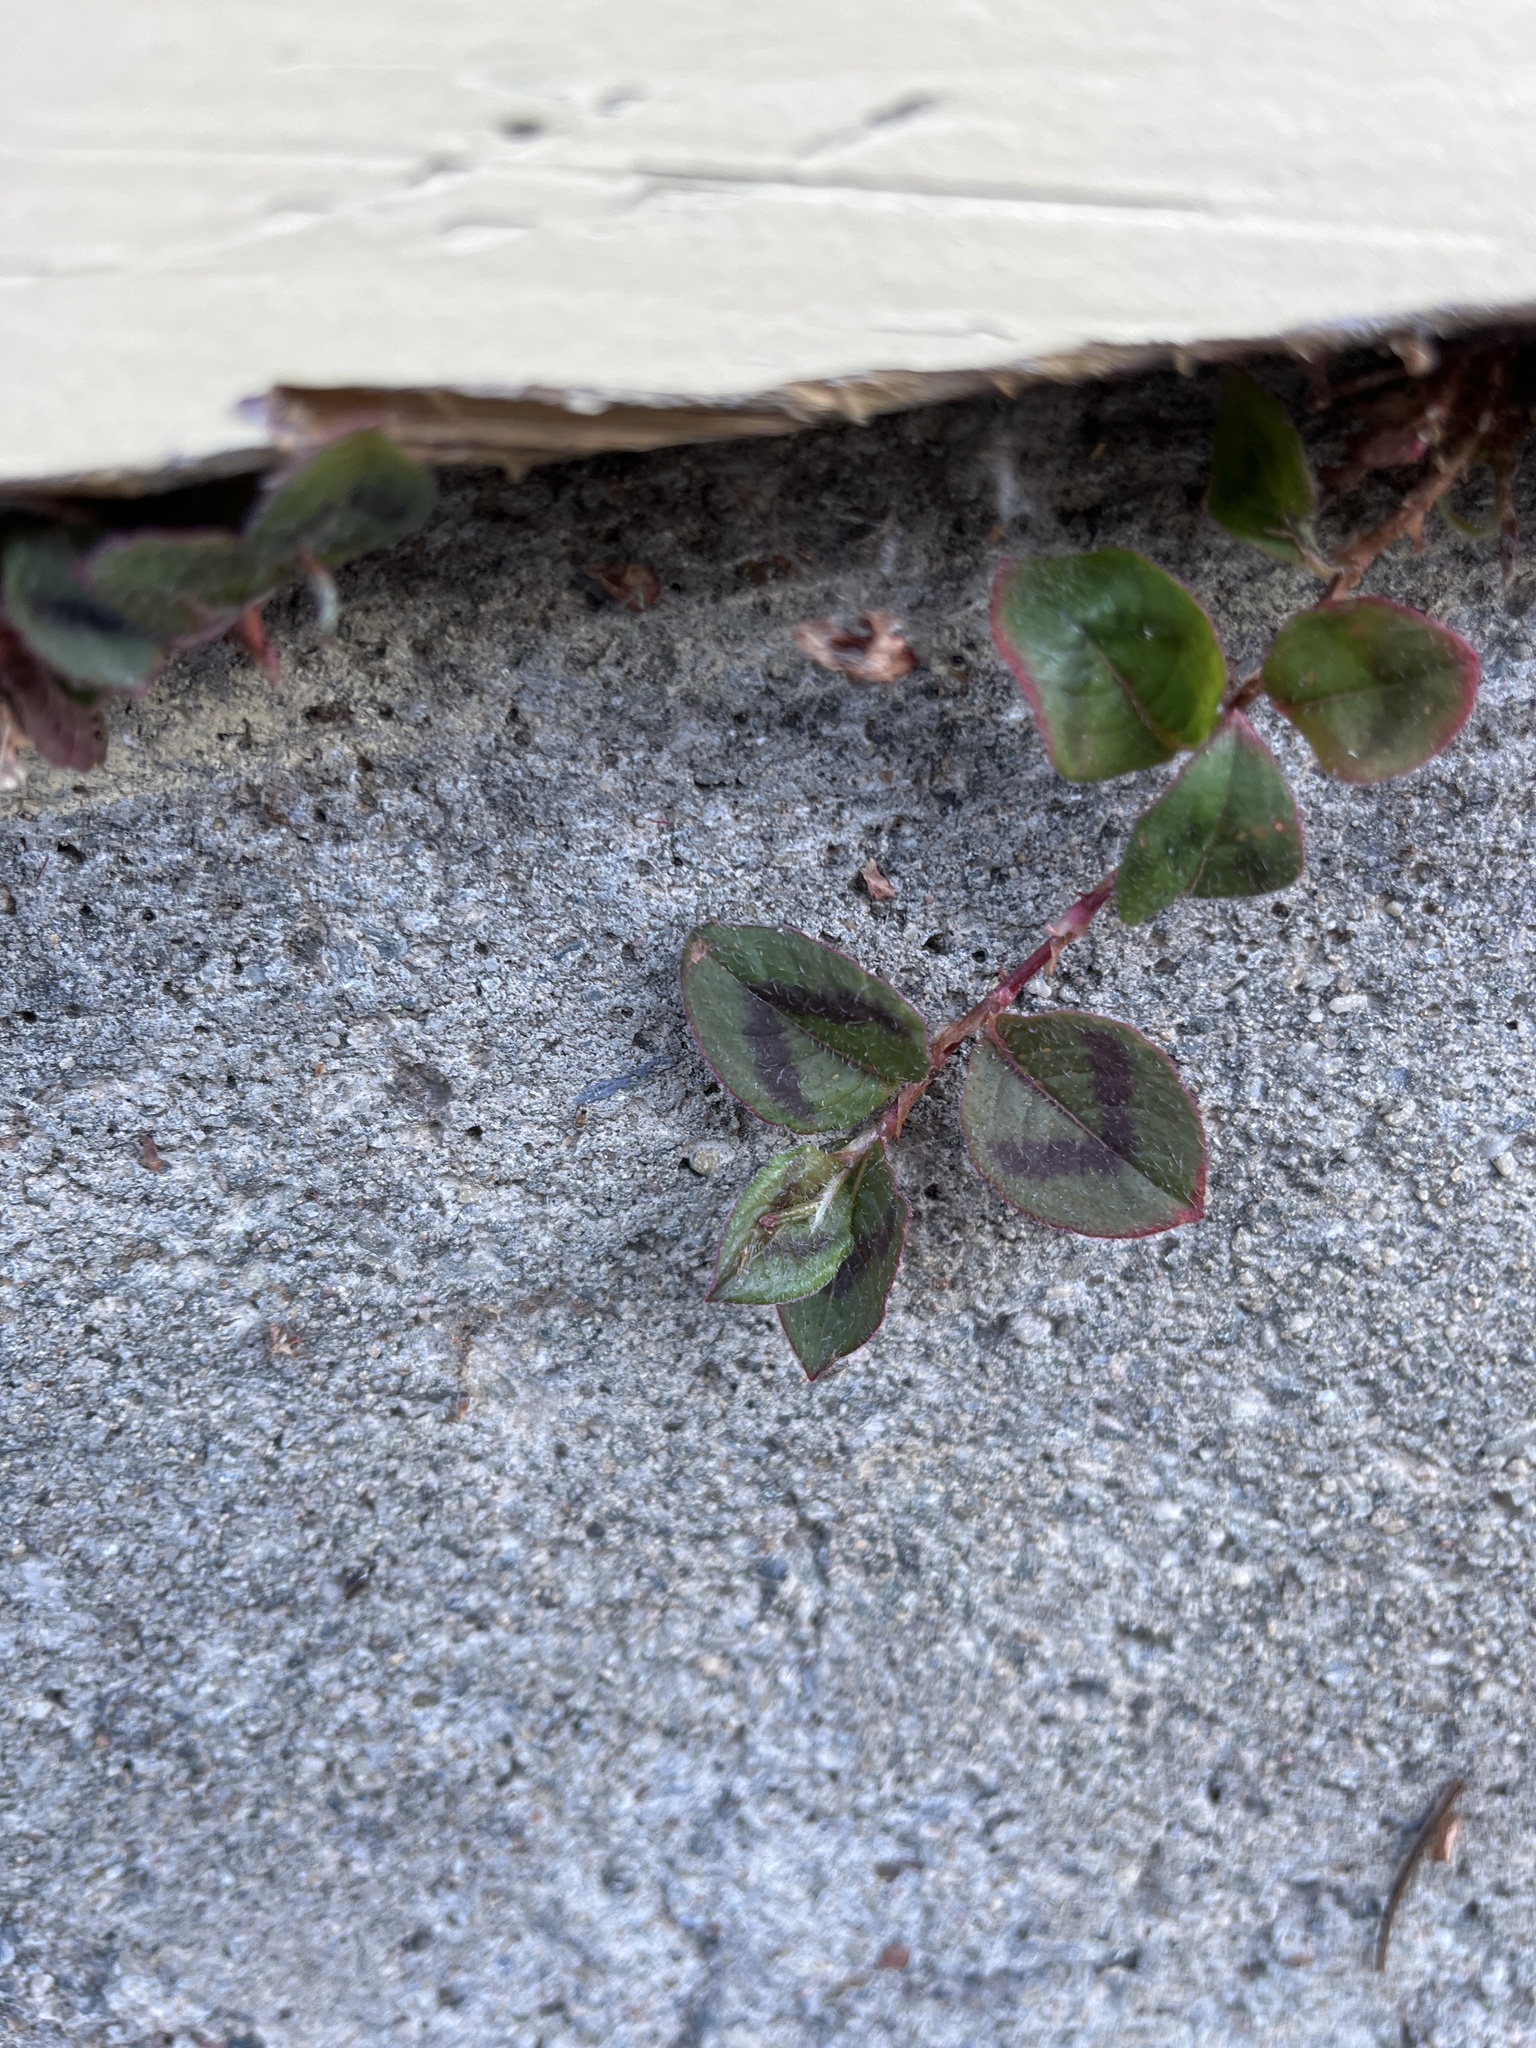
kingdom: Plantae
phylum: Tracheophyta
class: Magnoliopsida
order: Caryophyllales
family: Polygonaceae
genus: Persicaria
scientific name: Persicaria capitata
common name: Pinkhead smartweed
